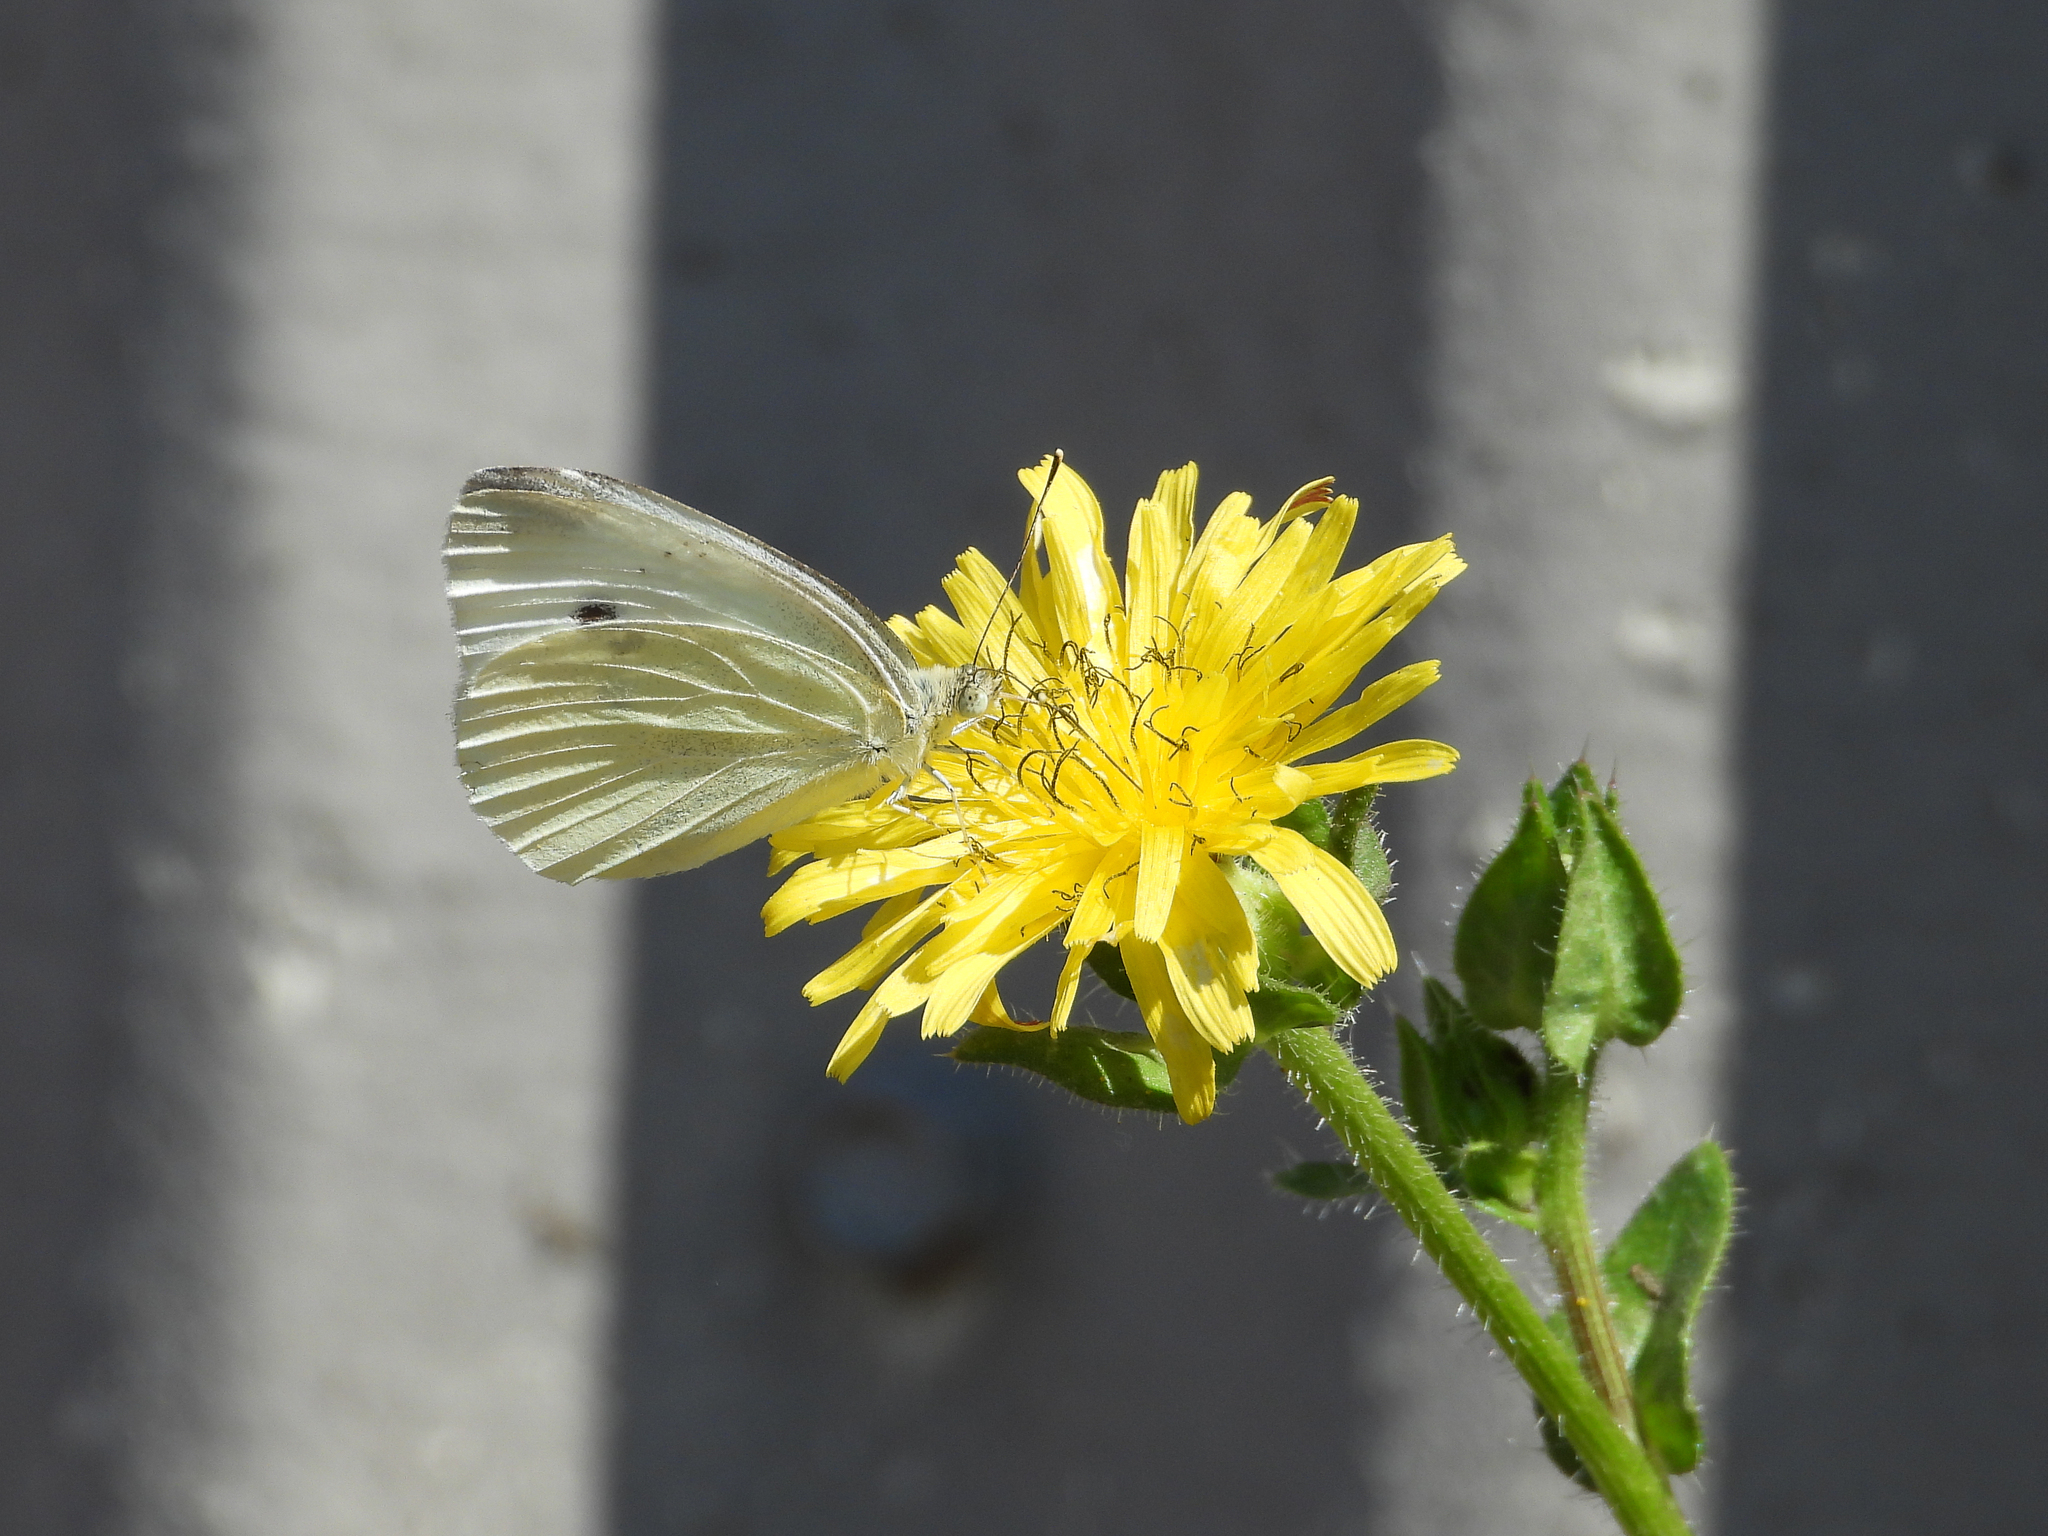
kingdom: Animalia
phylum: Arthropoda
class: Insecta
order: Lepidoptera
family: Pieridae
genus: Pieris
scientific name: Pieris rapae
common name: Small white
